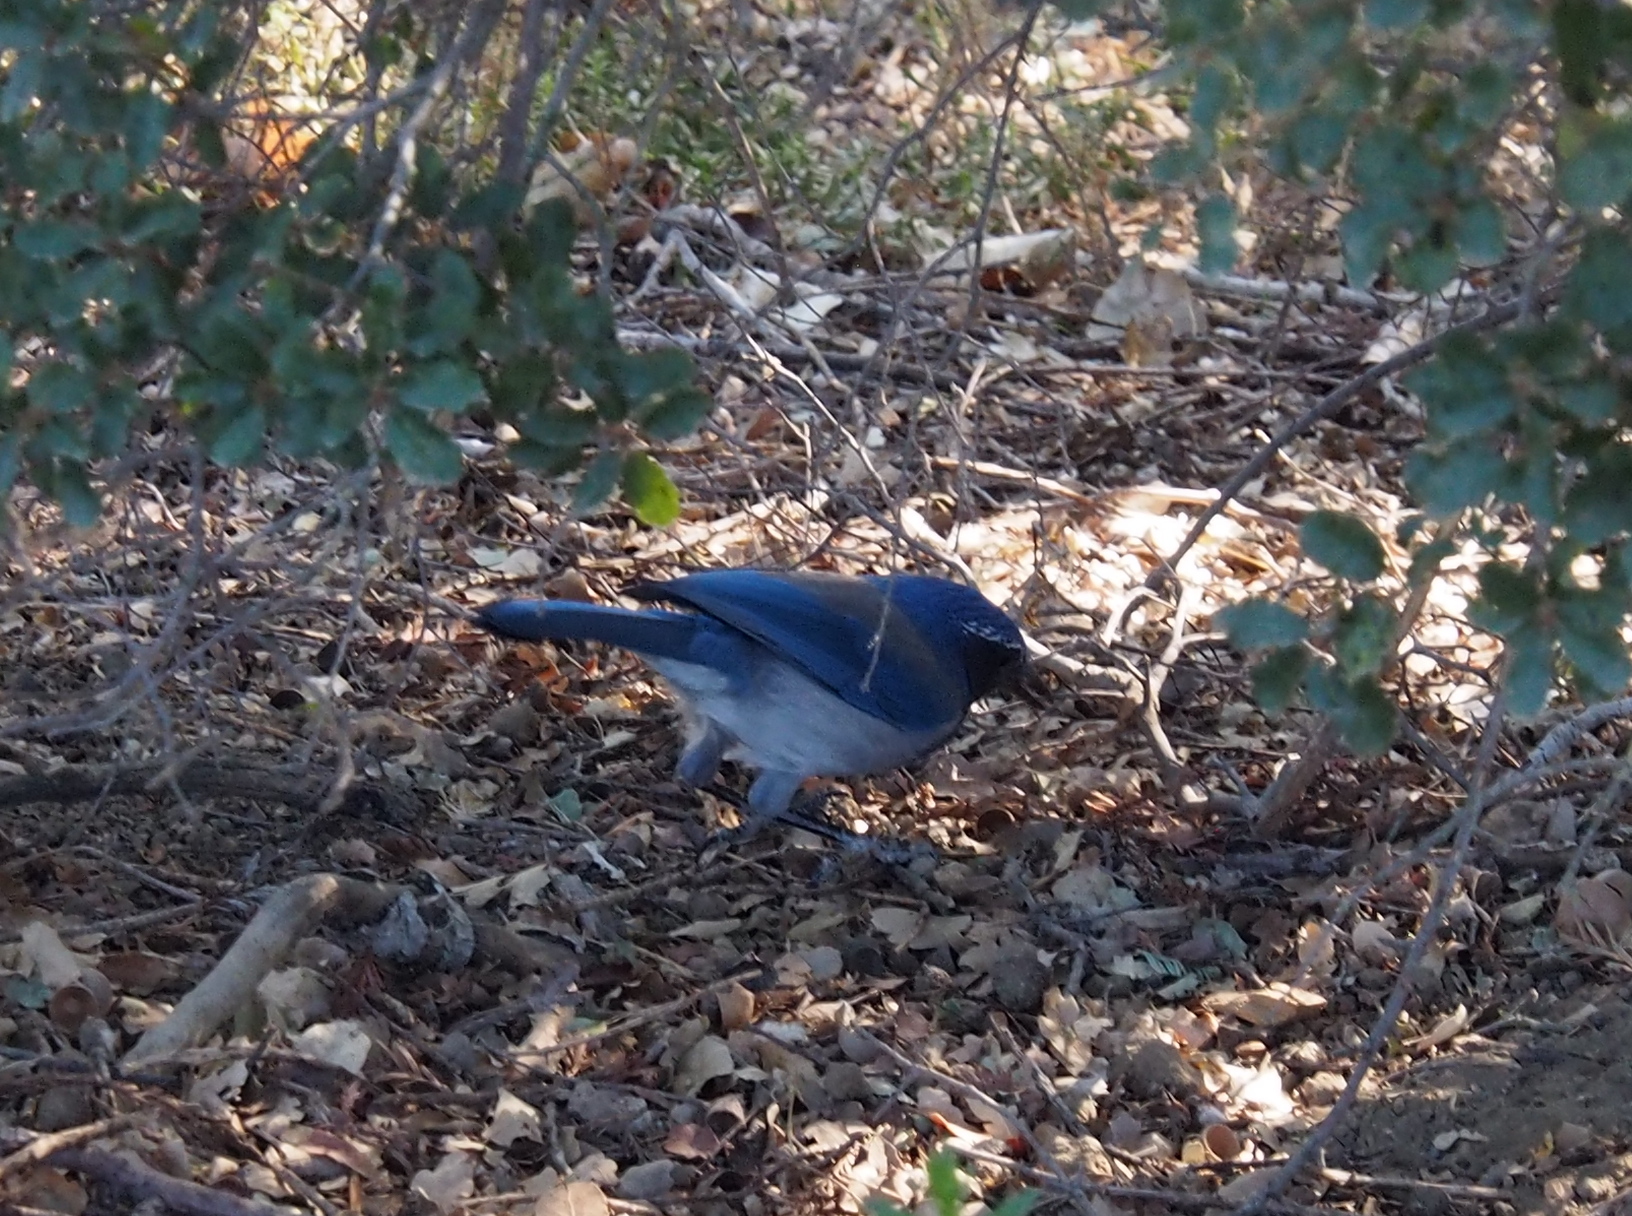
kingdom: Animalia
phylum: Chordata
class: Aves
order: Passeriformes
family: Corvidae
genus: Aphelocoma
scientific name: Aphelocoma californica
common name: California scrub-jay
